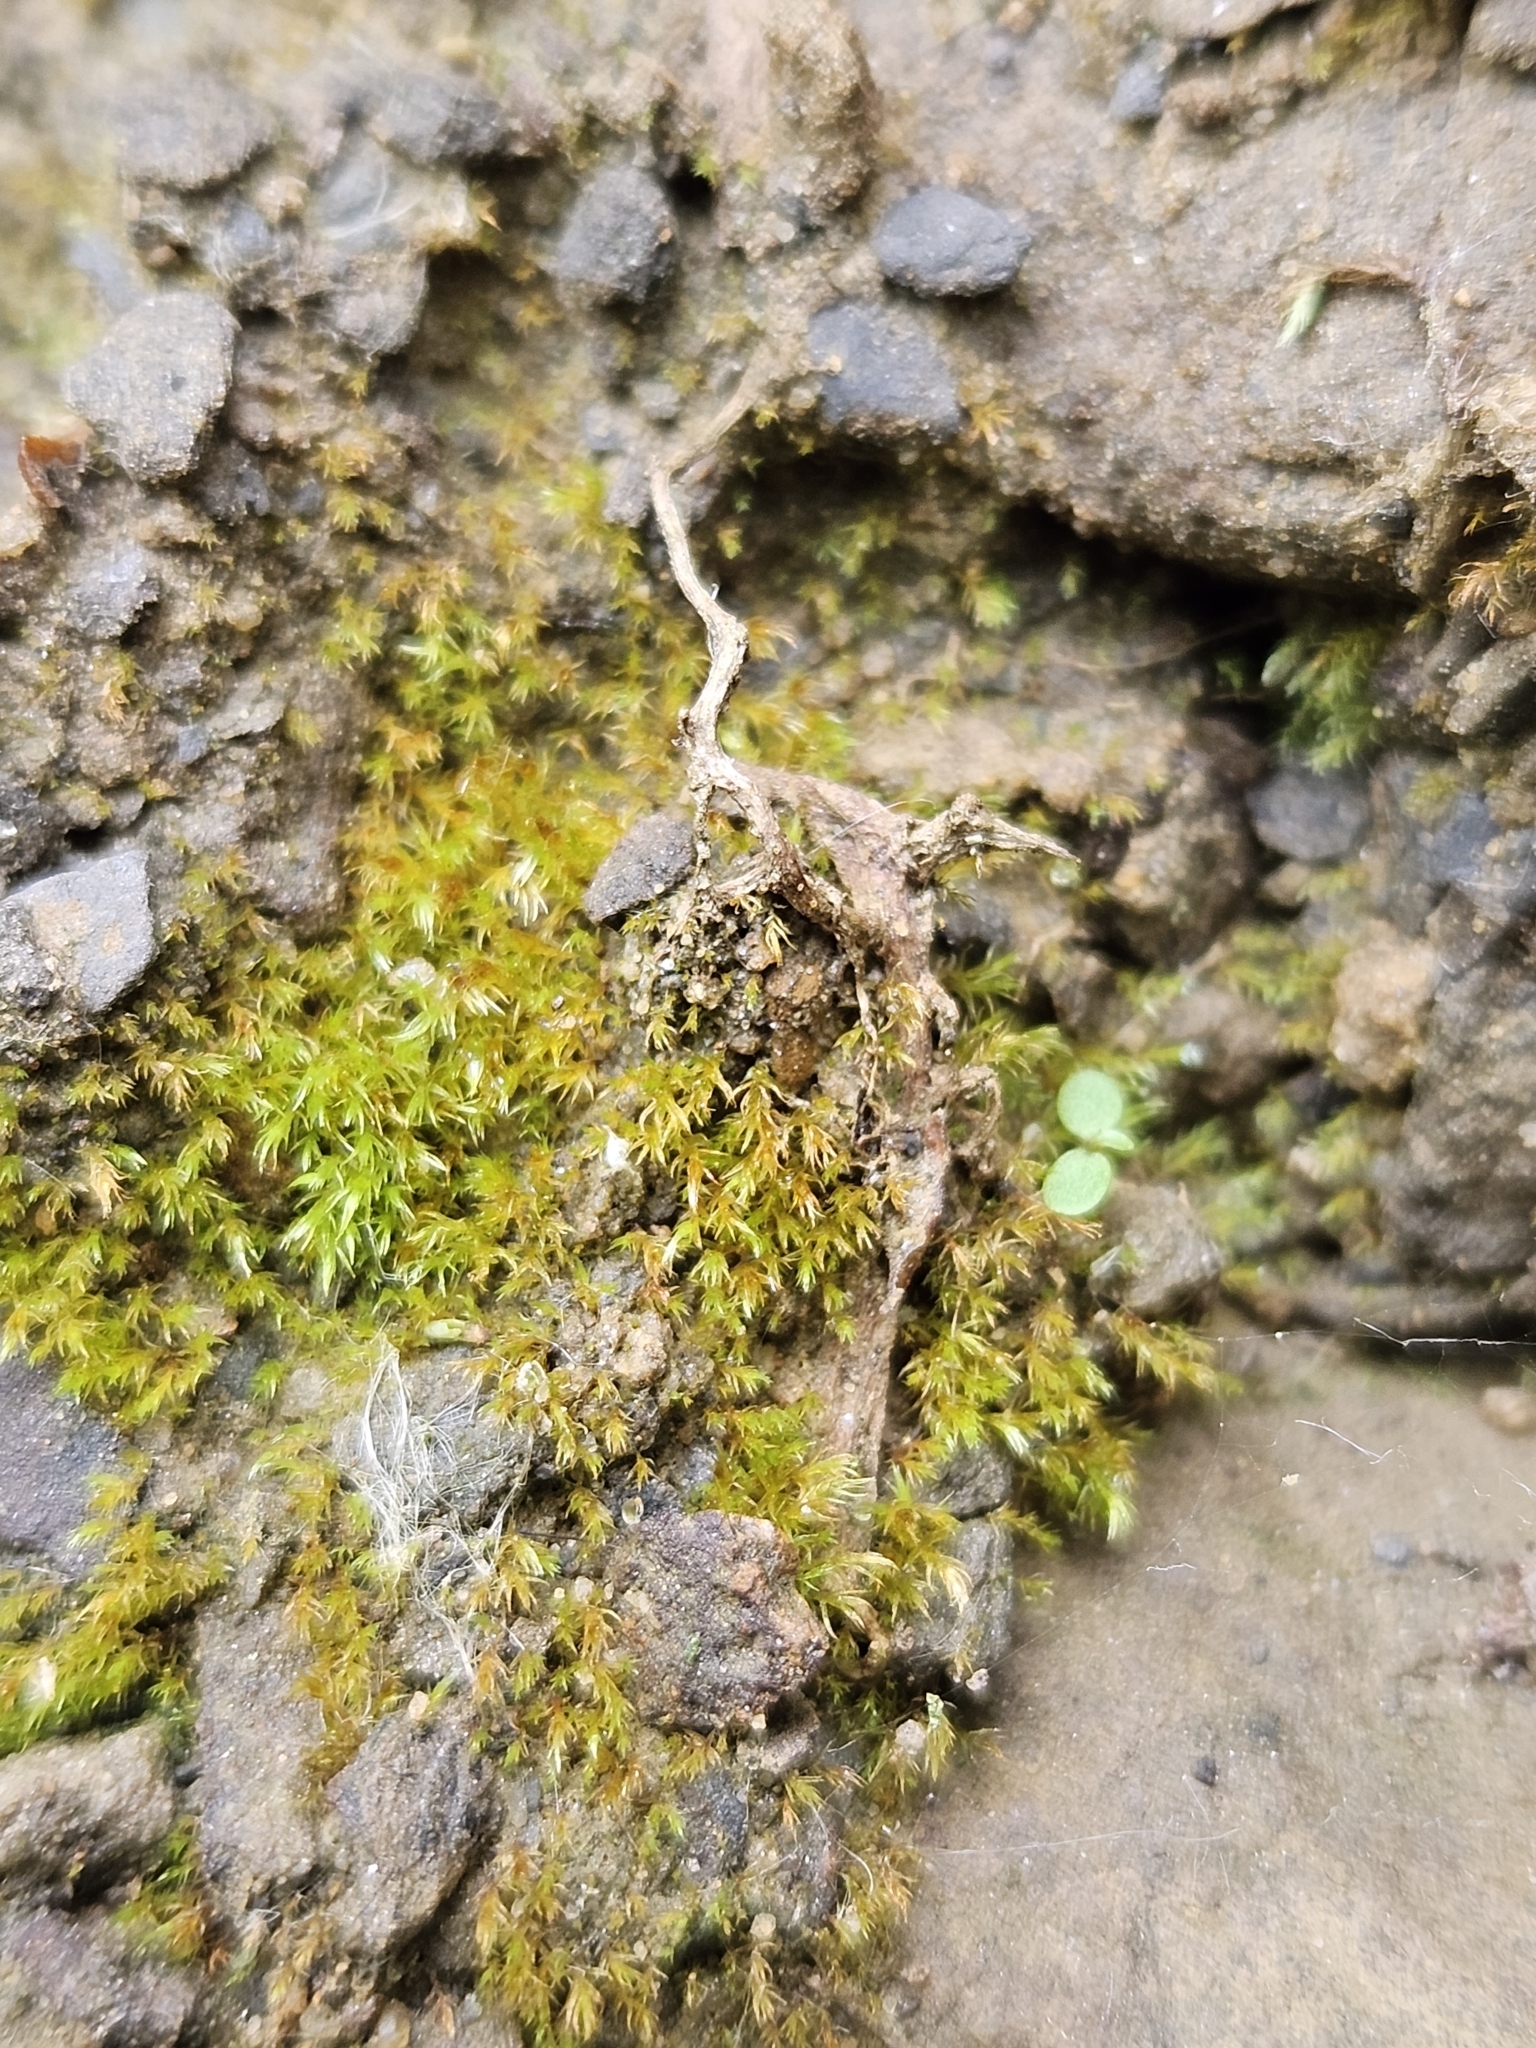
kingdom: Plantae
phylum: Bryophyta
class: Bryopsida
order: Dicranales
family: Dicranellaceae
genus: Dicranella
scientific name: Dicranella rufescens
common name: Red forklet moss
